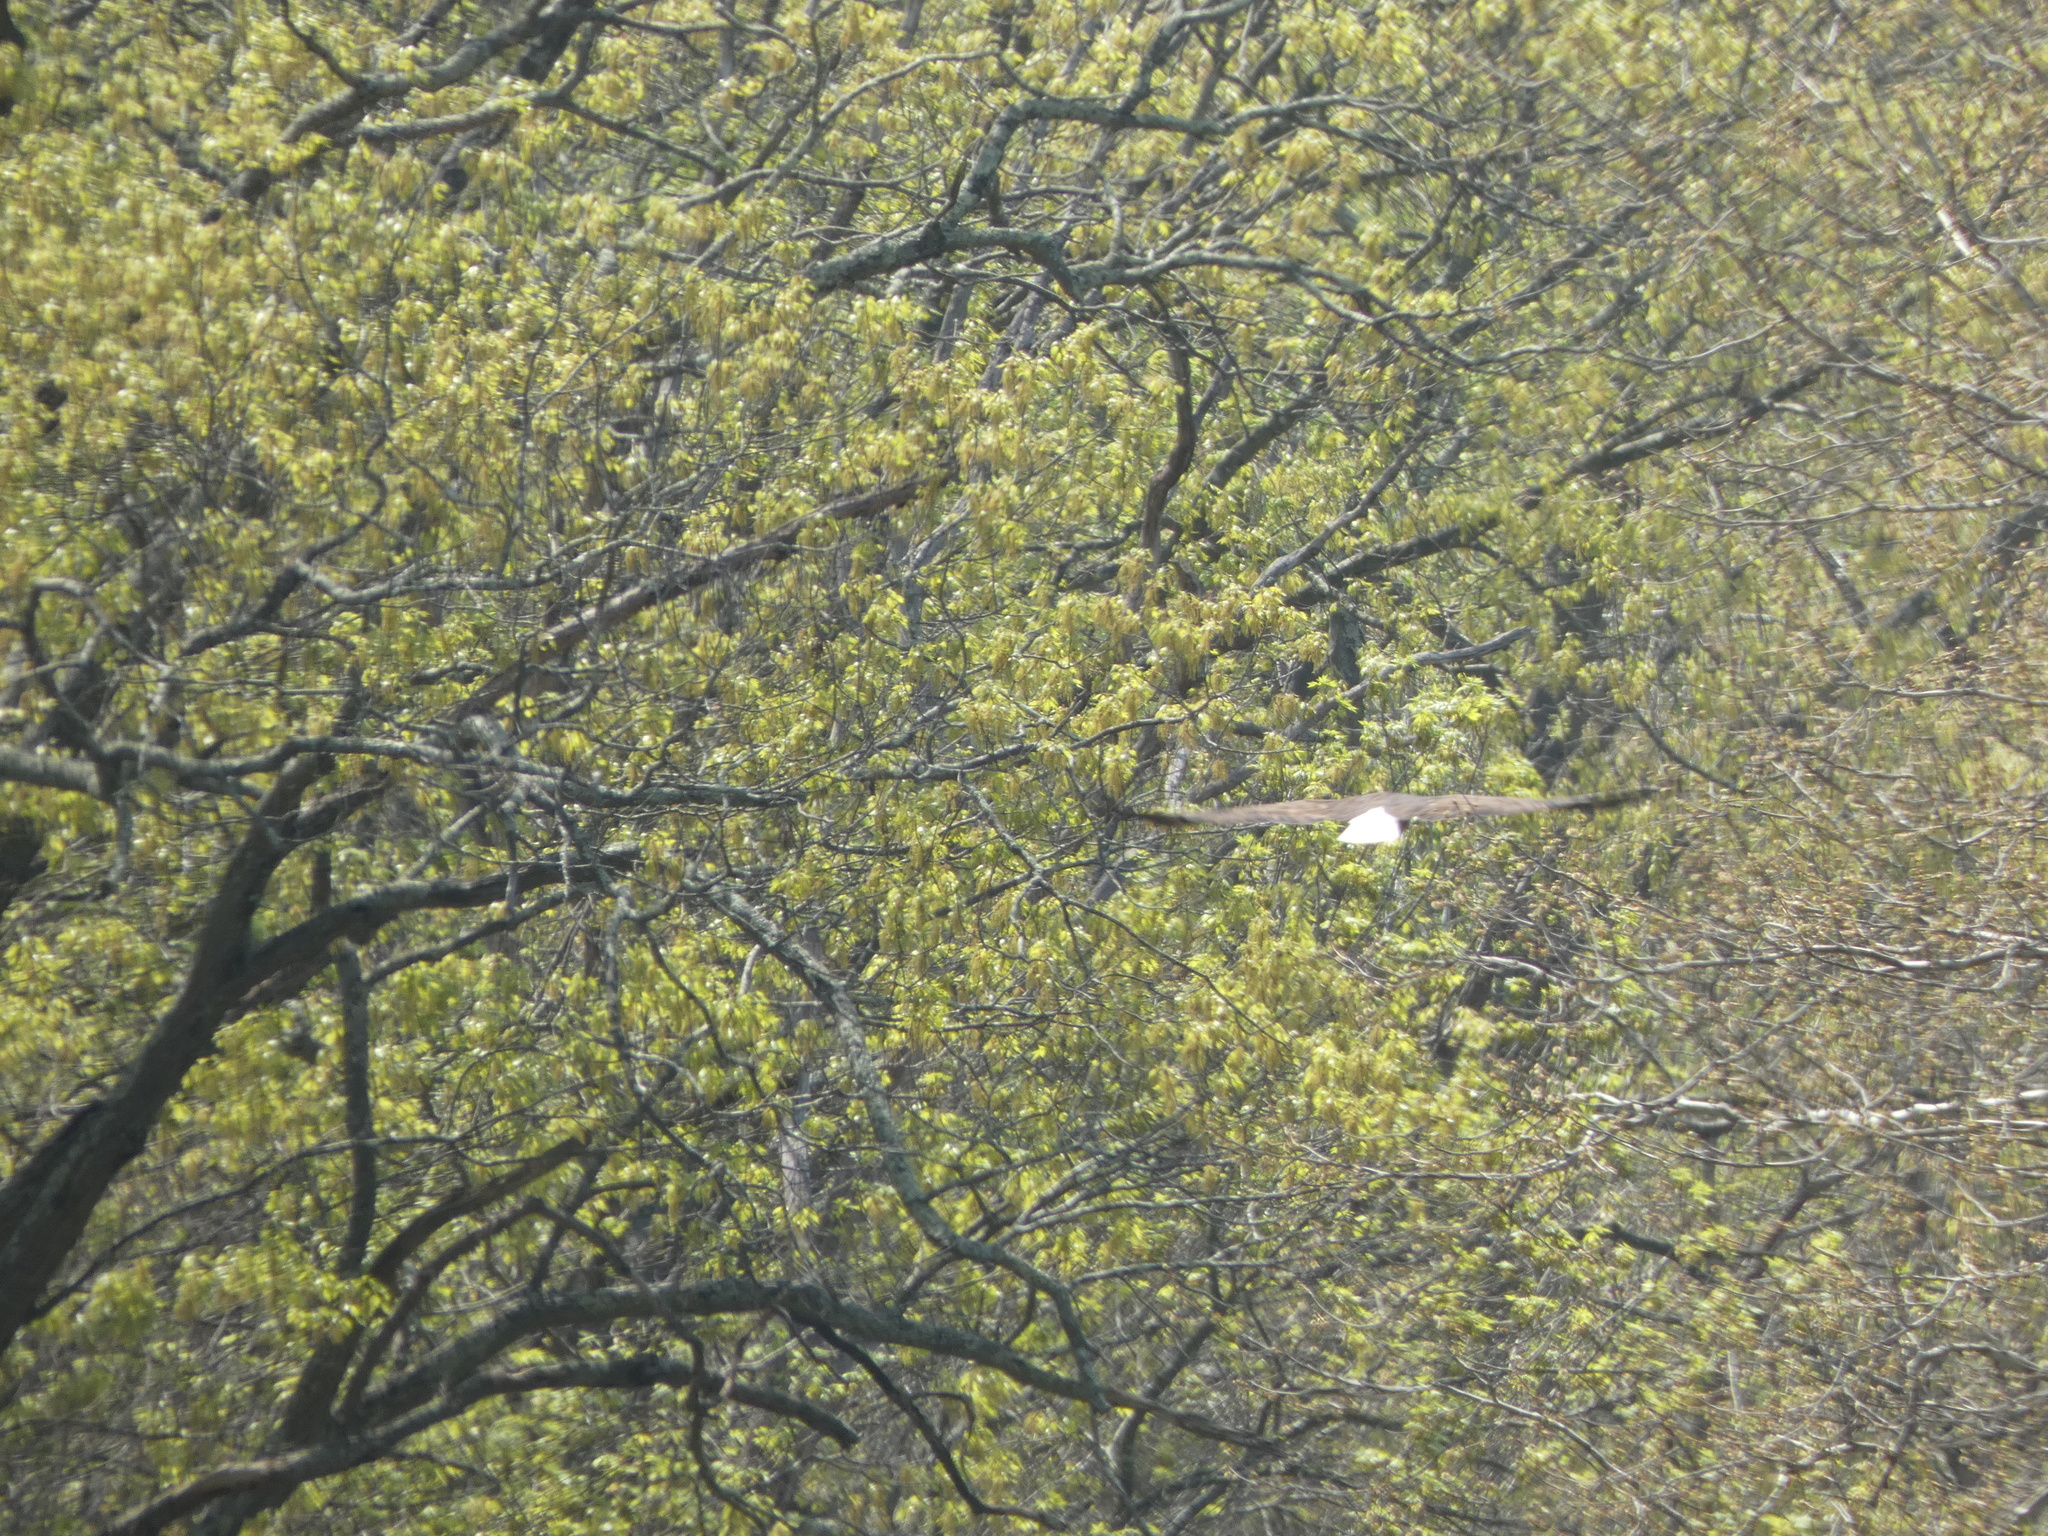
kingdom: Animalia
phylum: Chordata
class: Aves
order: Accipitriformes
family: Accipitridae
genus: Haliaeetus
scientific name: Haliaeetus leucocephalus
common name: Bald eagle
